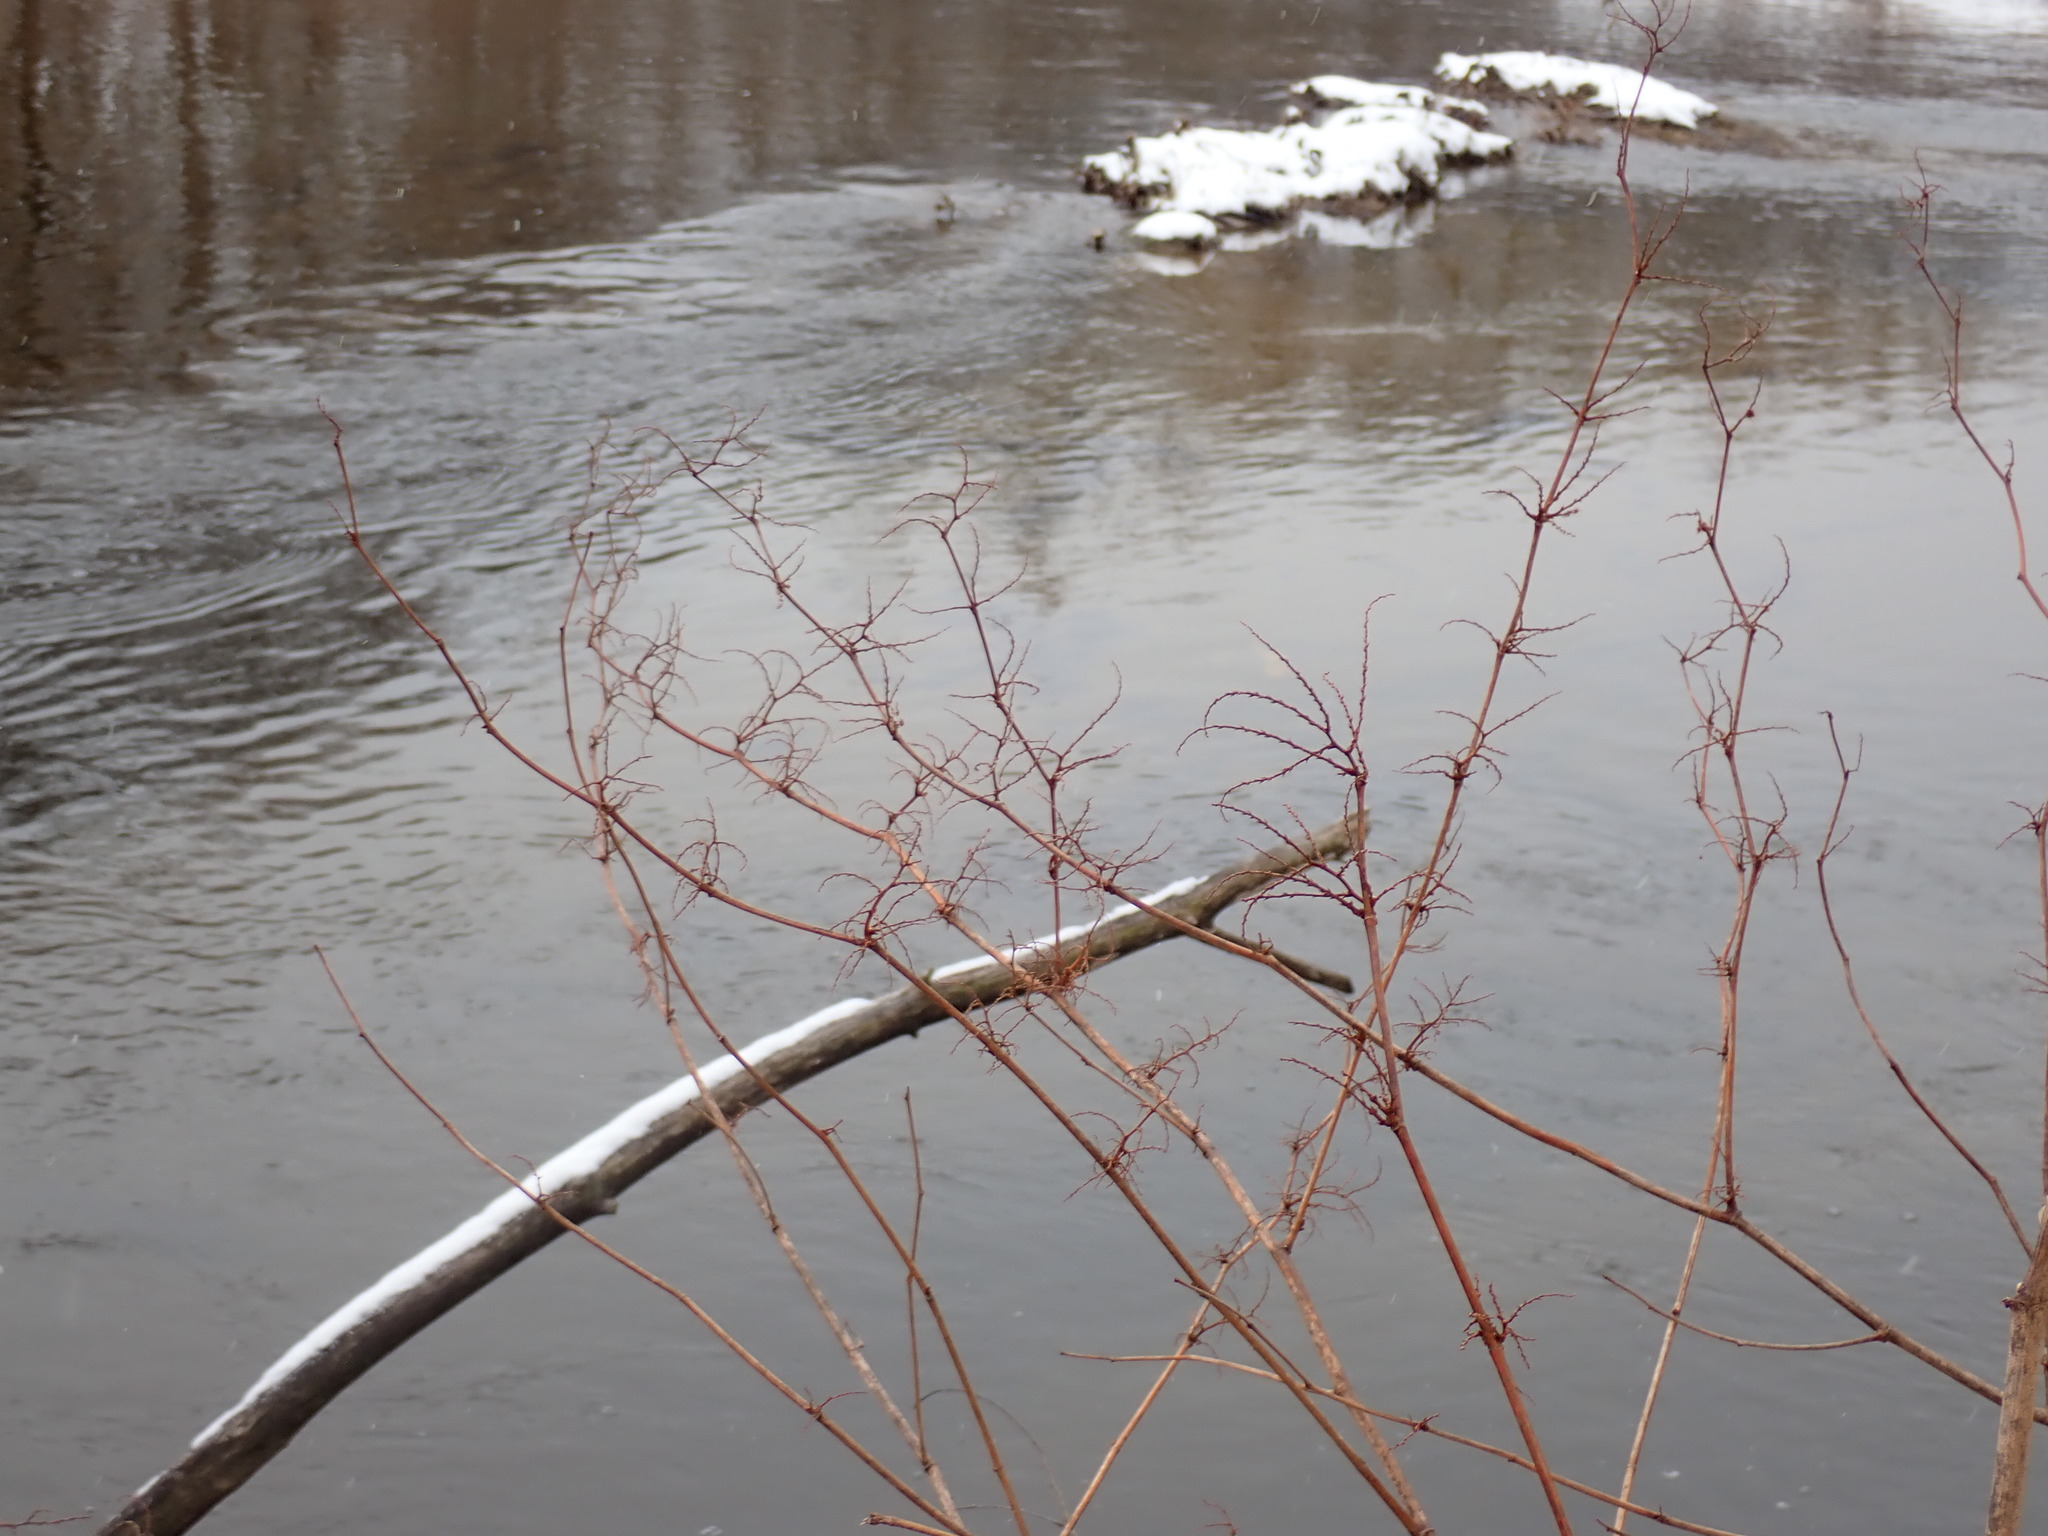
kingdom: Plantae
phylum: Tracheophyta
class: Magnoliopsida
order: Caryophyllales
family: Polygonaceae
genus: Reynoutria
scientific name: Reynoutria
